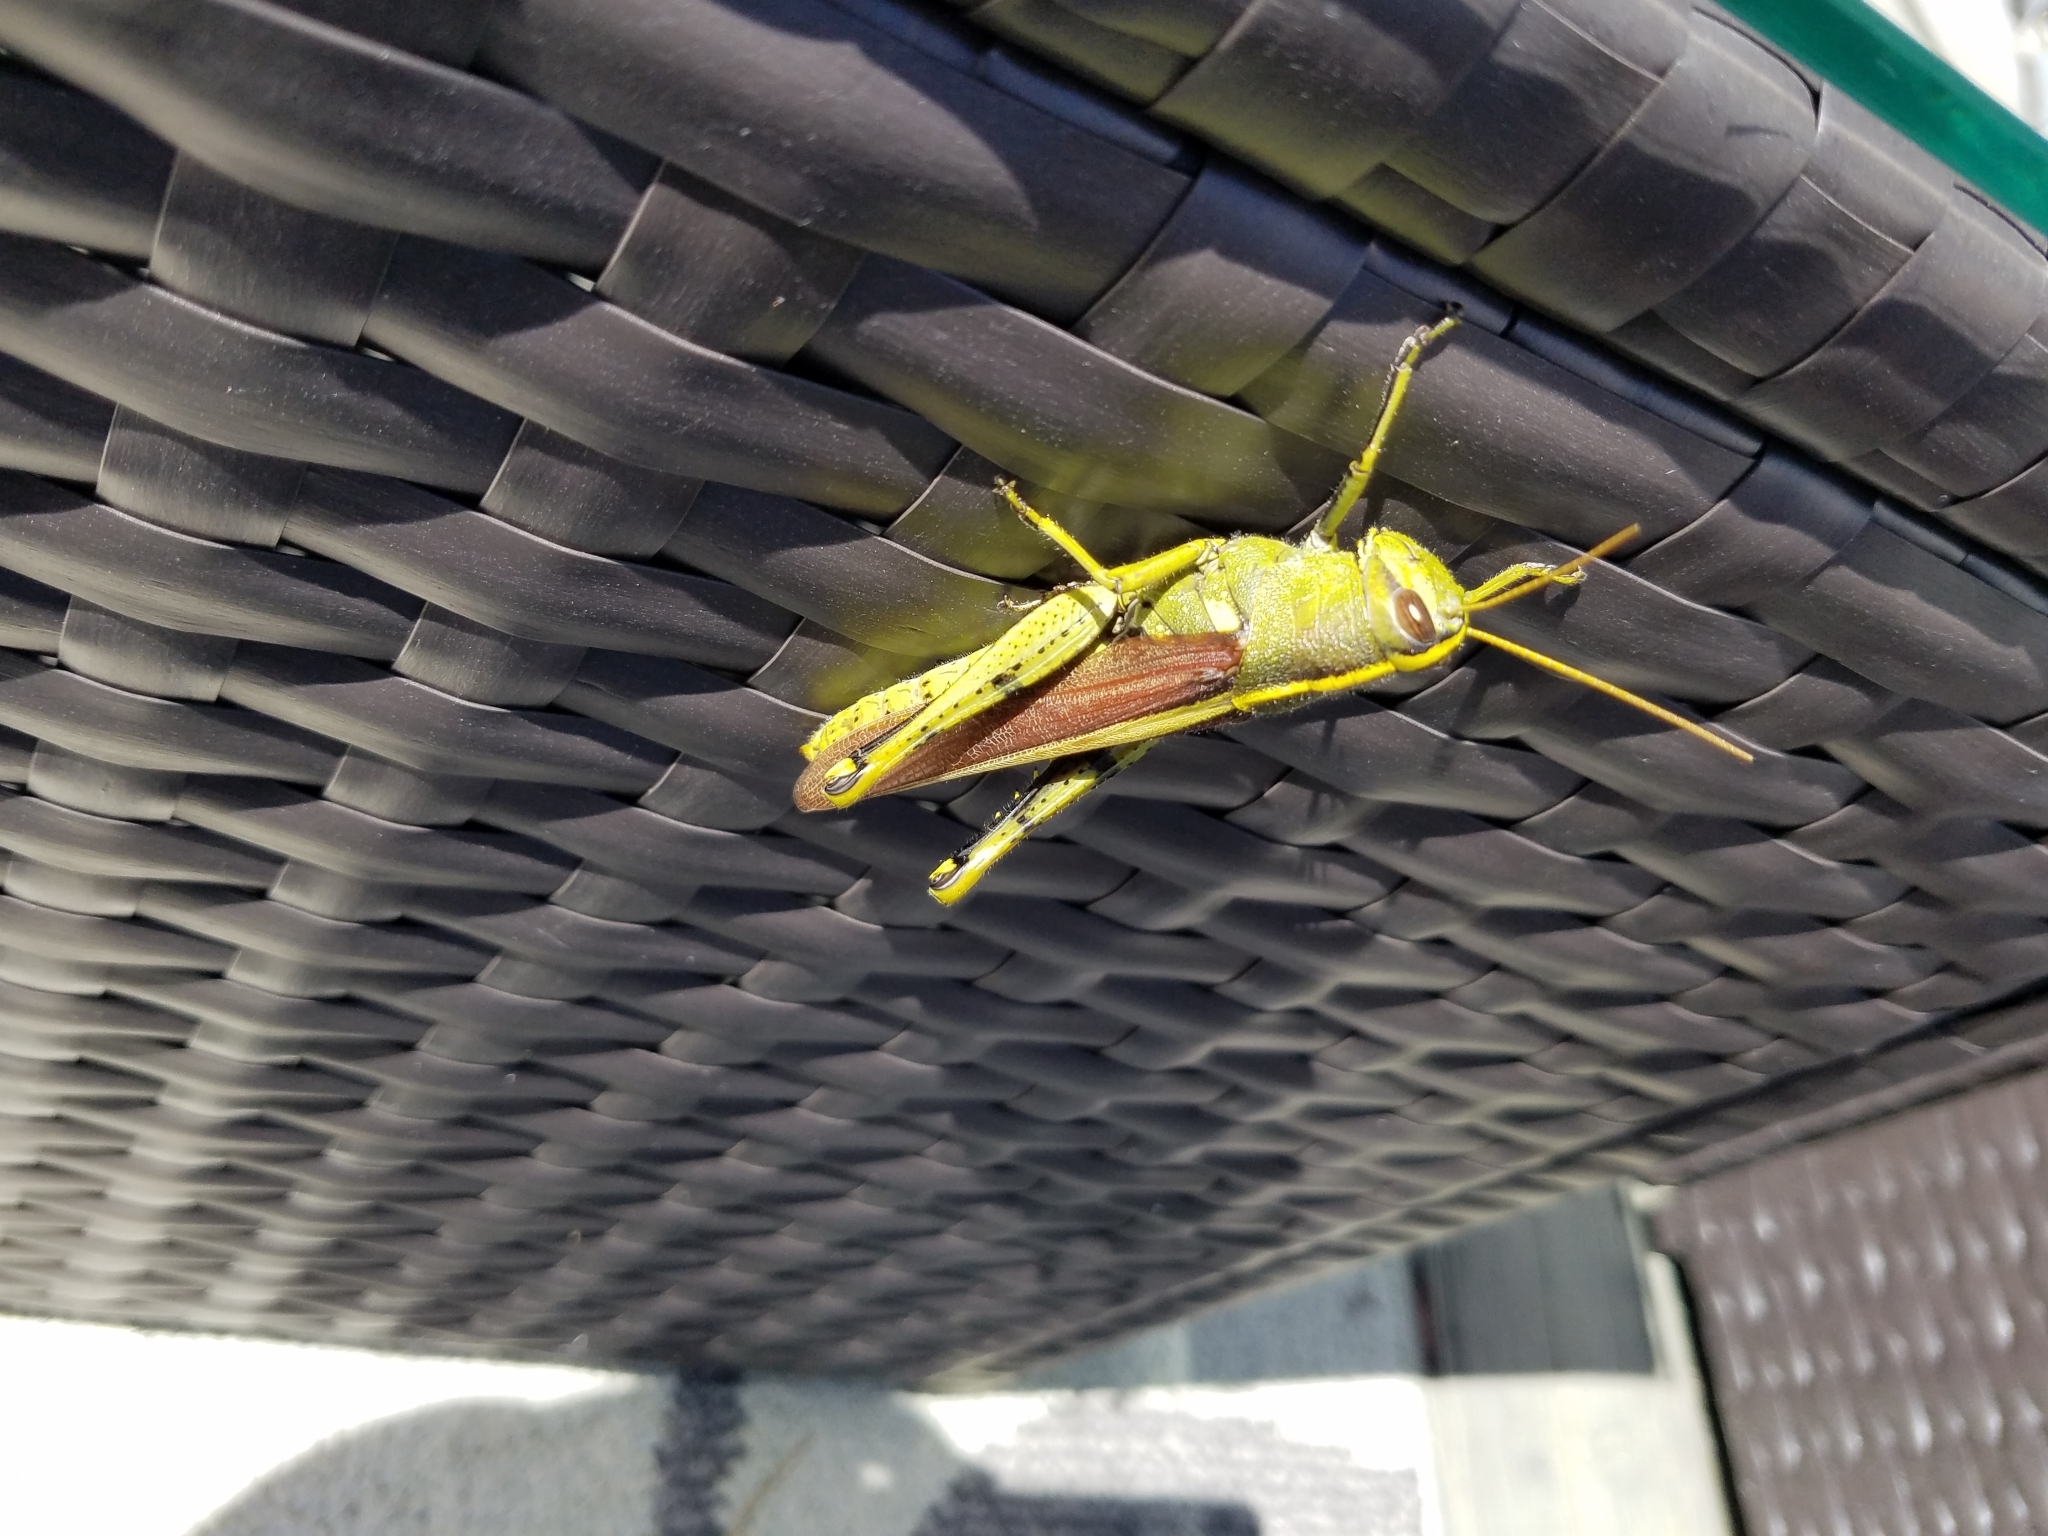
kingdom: Animalia
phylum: Arthropoda
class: Insecta
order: Orthoptera
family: Acrididae
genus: Schistocerca
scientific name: Schistocerca obscura
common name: Obscure bird grasshopper
